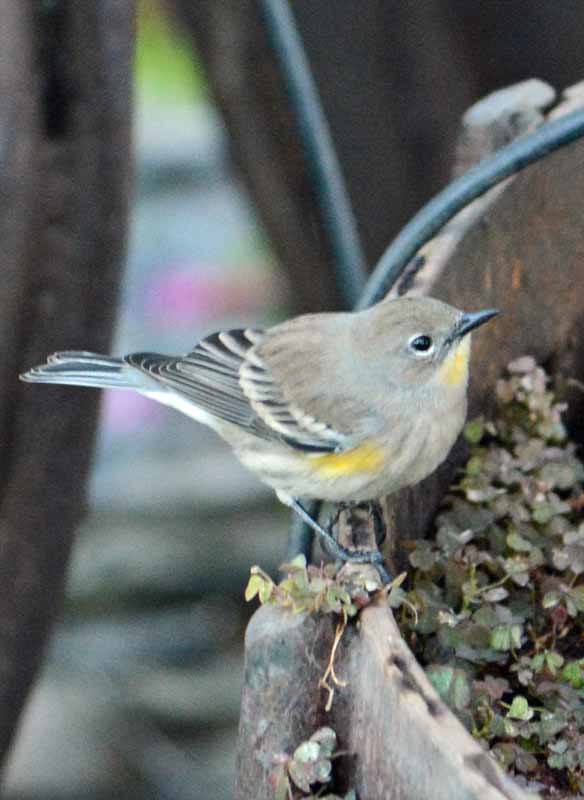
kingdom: Animalia
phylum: Chordata
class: Aves
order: Passeriformes
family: Parulidae
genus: Setophaga
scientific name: Setophaga auduboni
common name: Audubon's warbler
